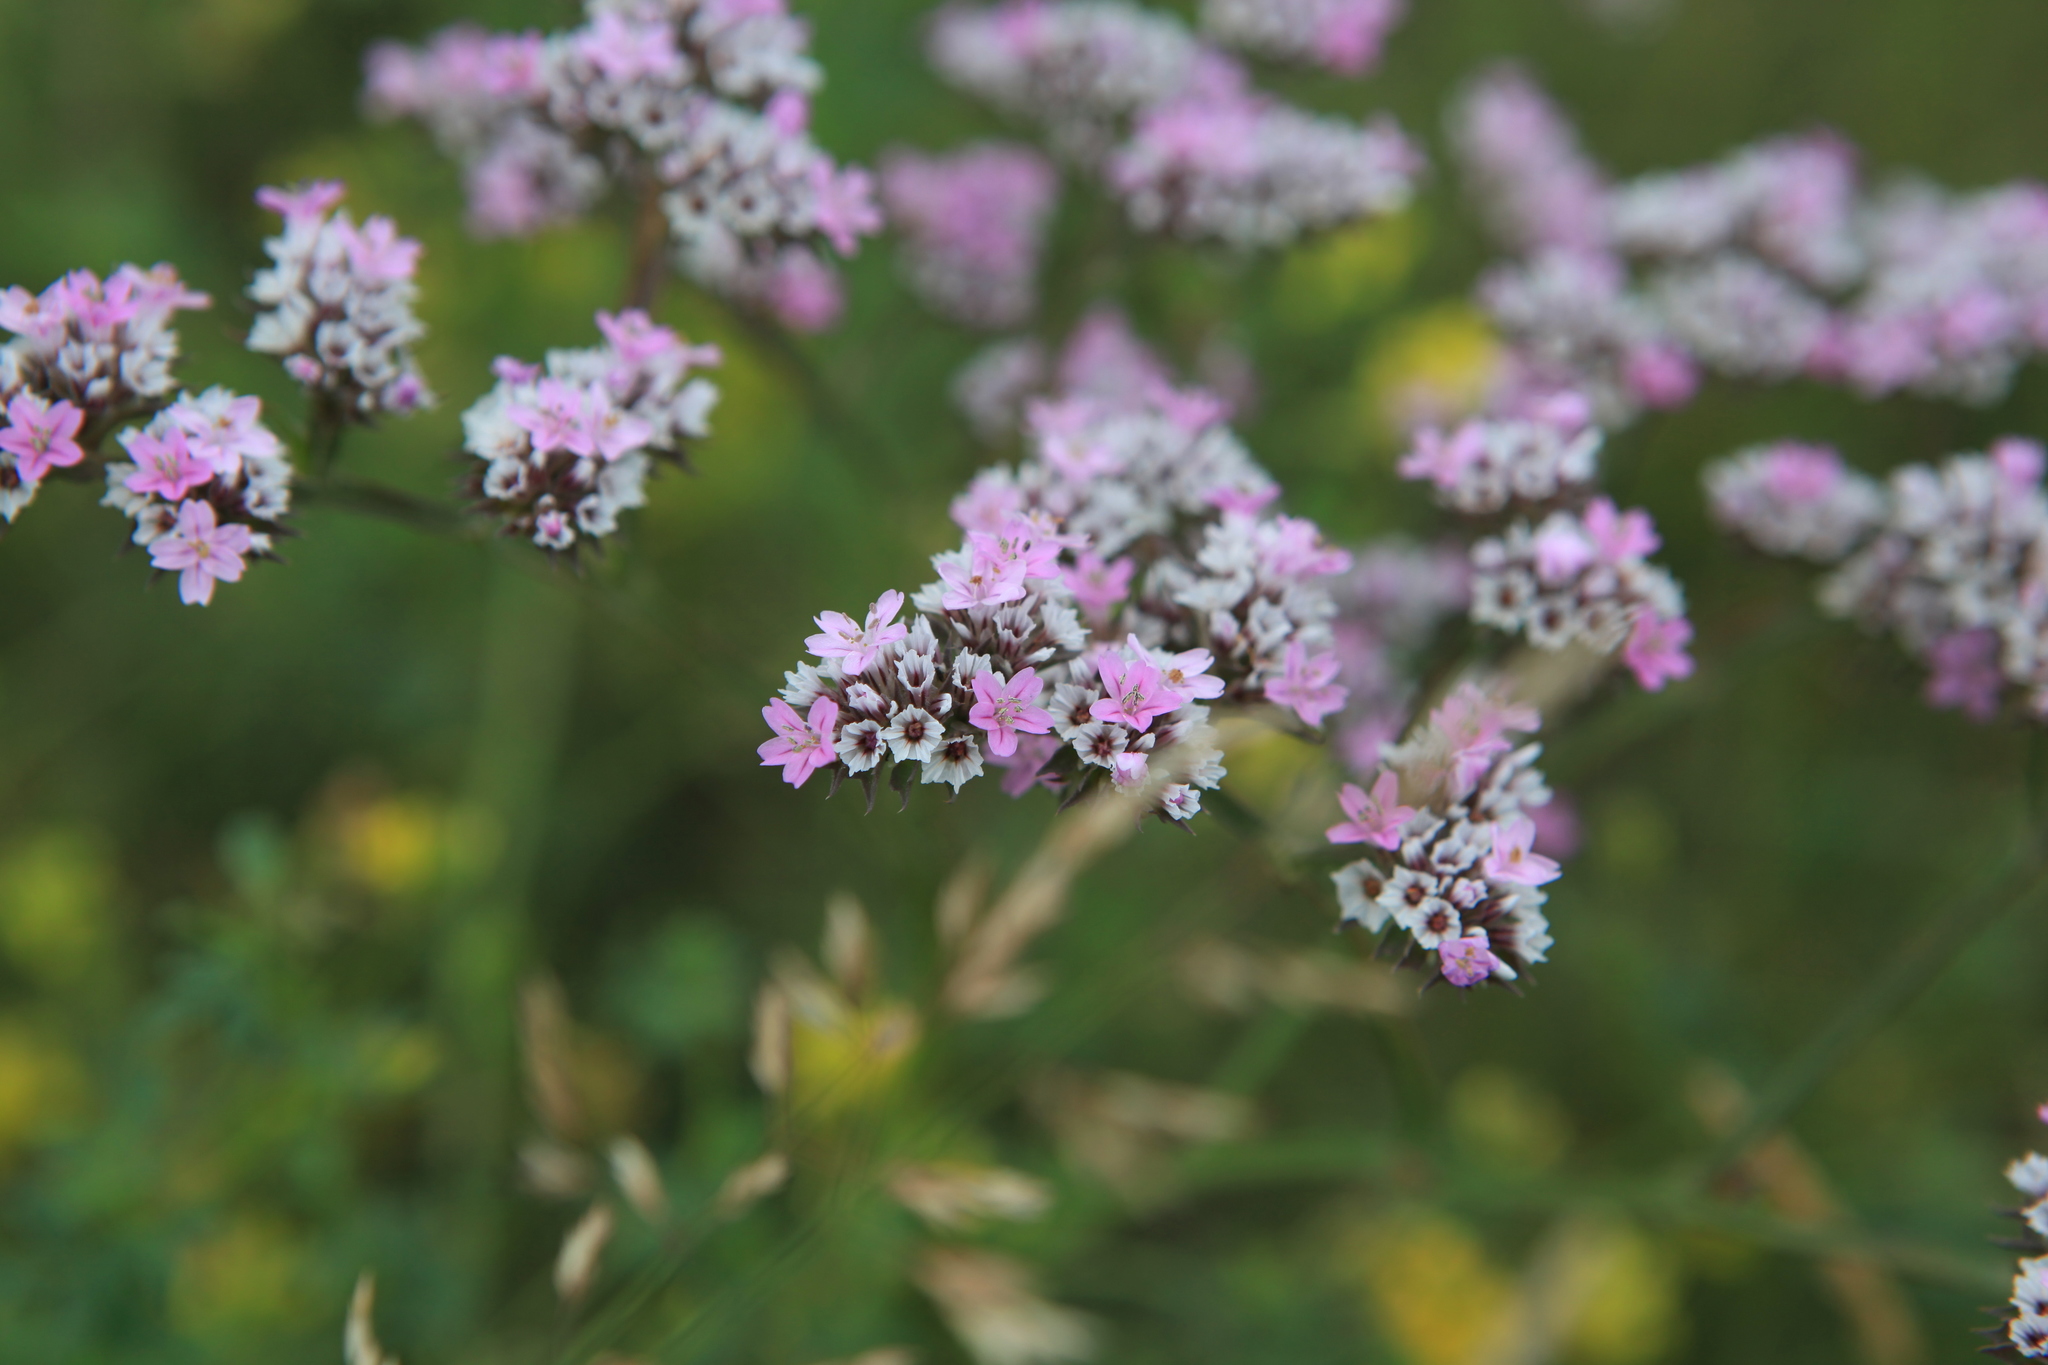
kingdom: Plantae
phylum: Tracheophyta
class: Magnoliopsida
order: Caryophyllales
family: Plumbaginaceae
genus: Goniolimon
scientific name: Goniolimon speciosum
